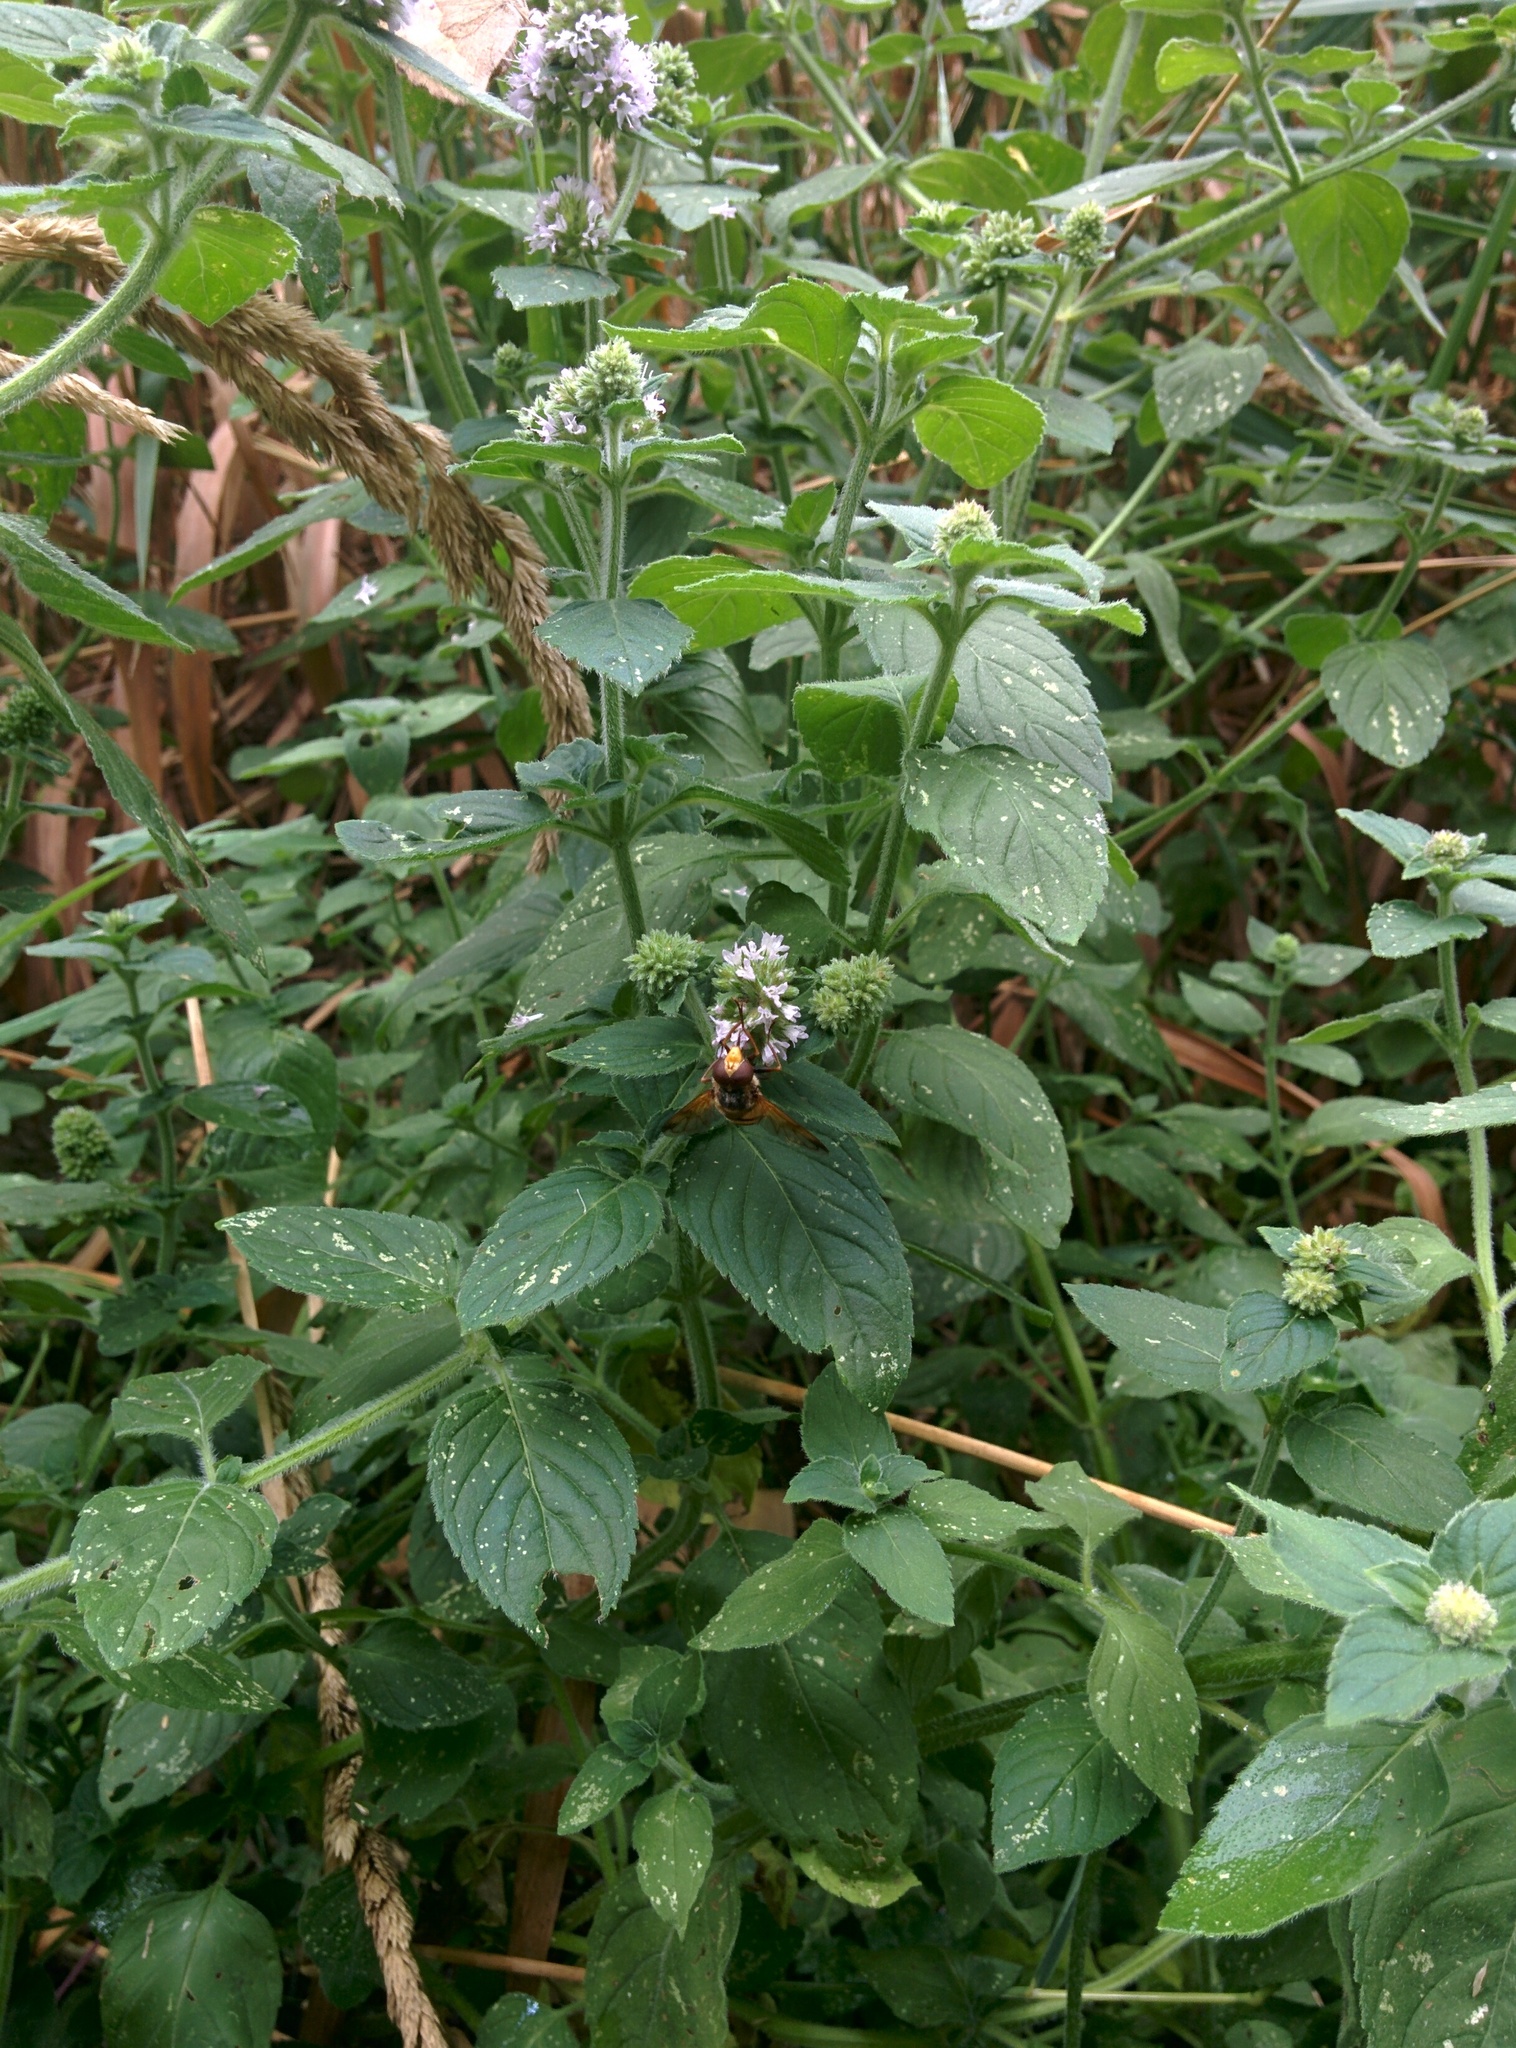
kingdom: Animalia
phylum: Arthropoda
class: Insecta
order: Diptera
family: Syrphidae
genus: Volucella
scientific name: Volucella inanis
